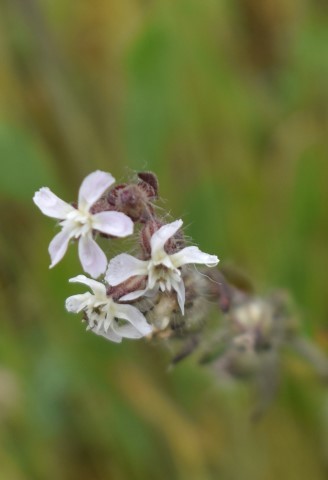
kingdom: Plantae
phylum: Tracheophyta
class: Magnoliopsida
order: Caryophyllales
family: Caryophyllaceae
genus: Silene
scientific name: Silene gallica
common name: Small-flowered catchfly
